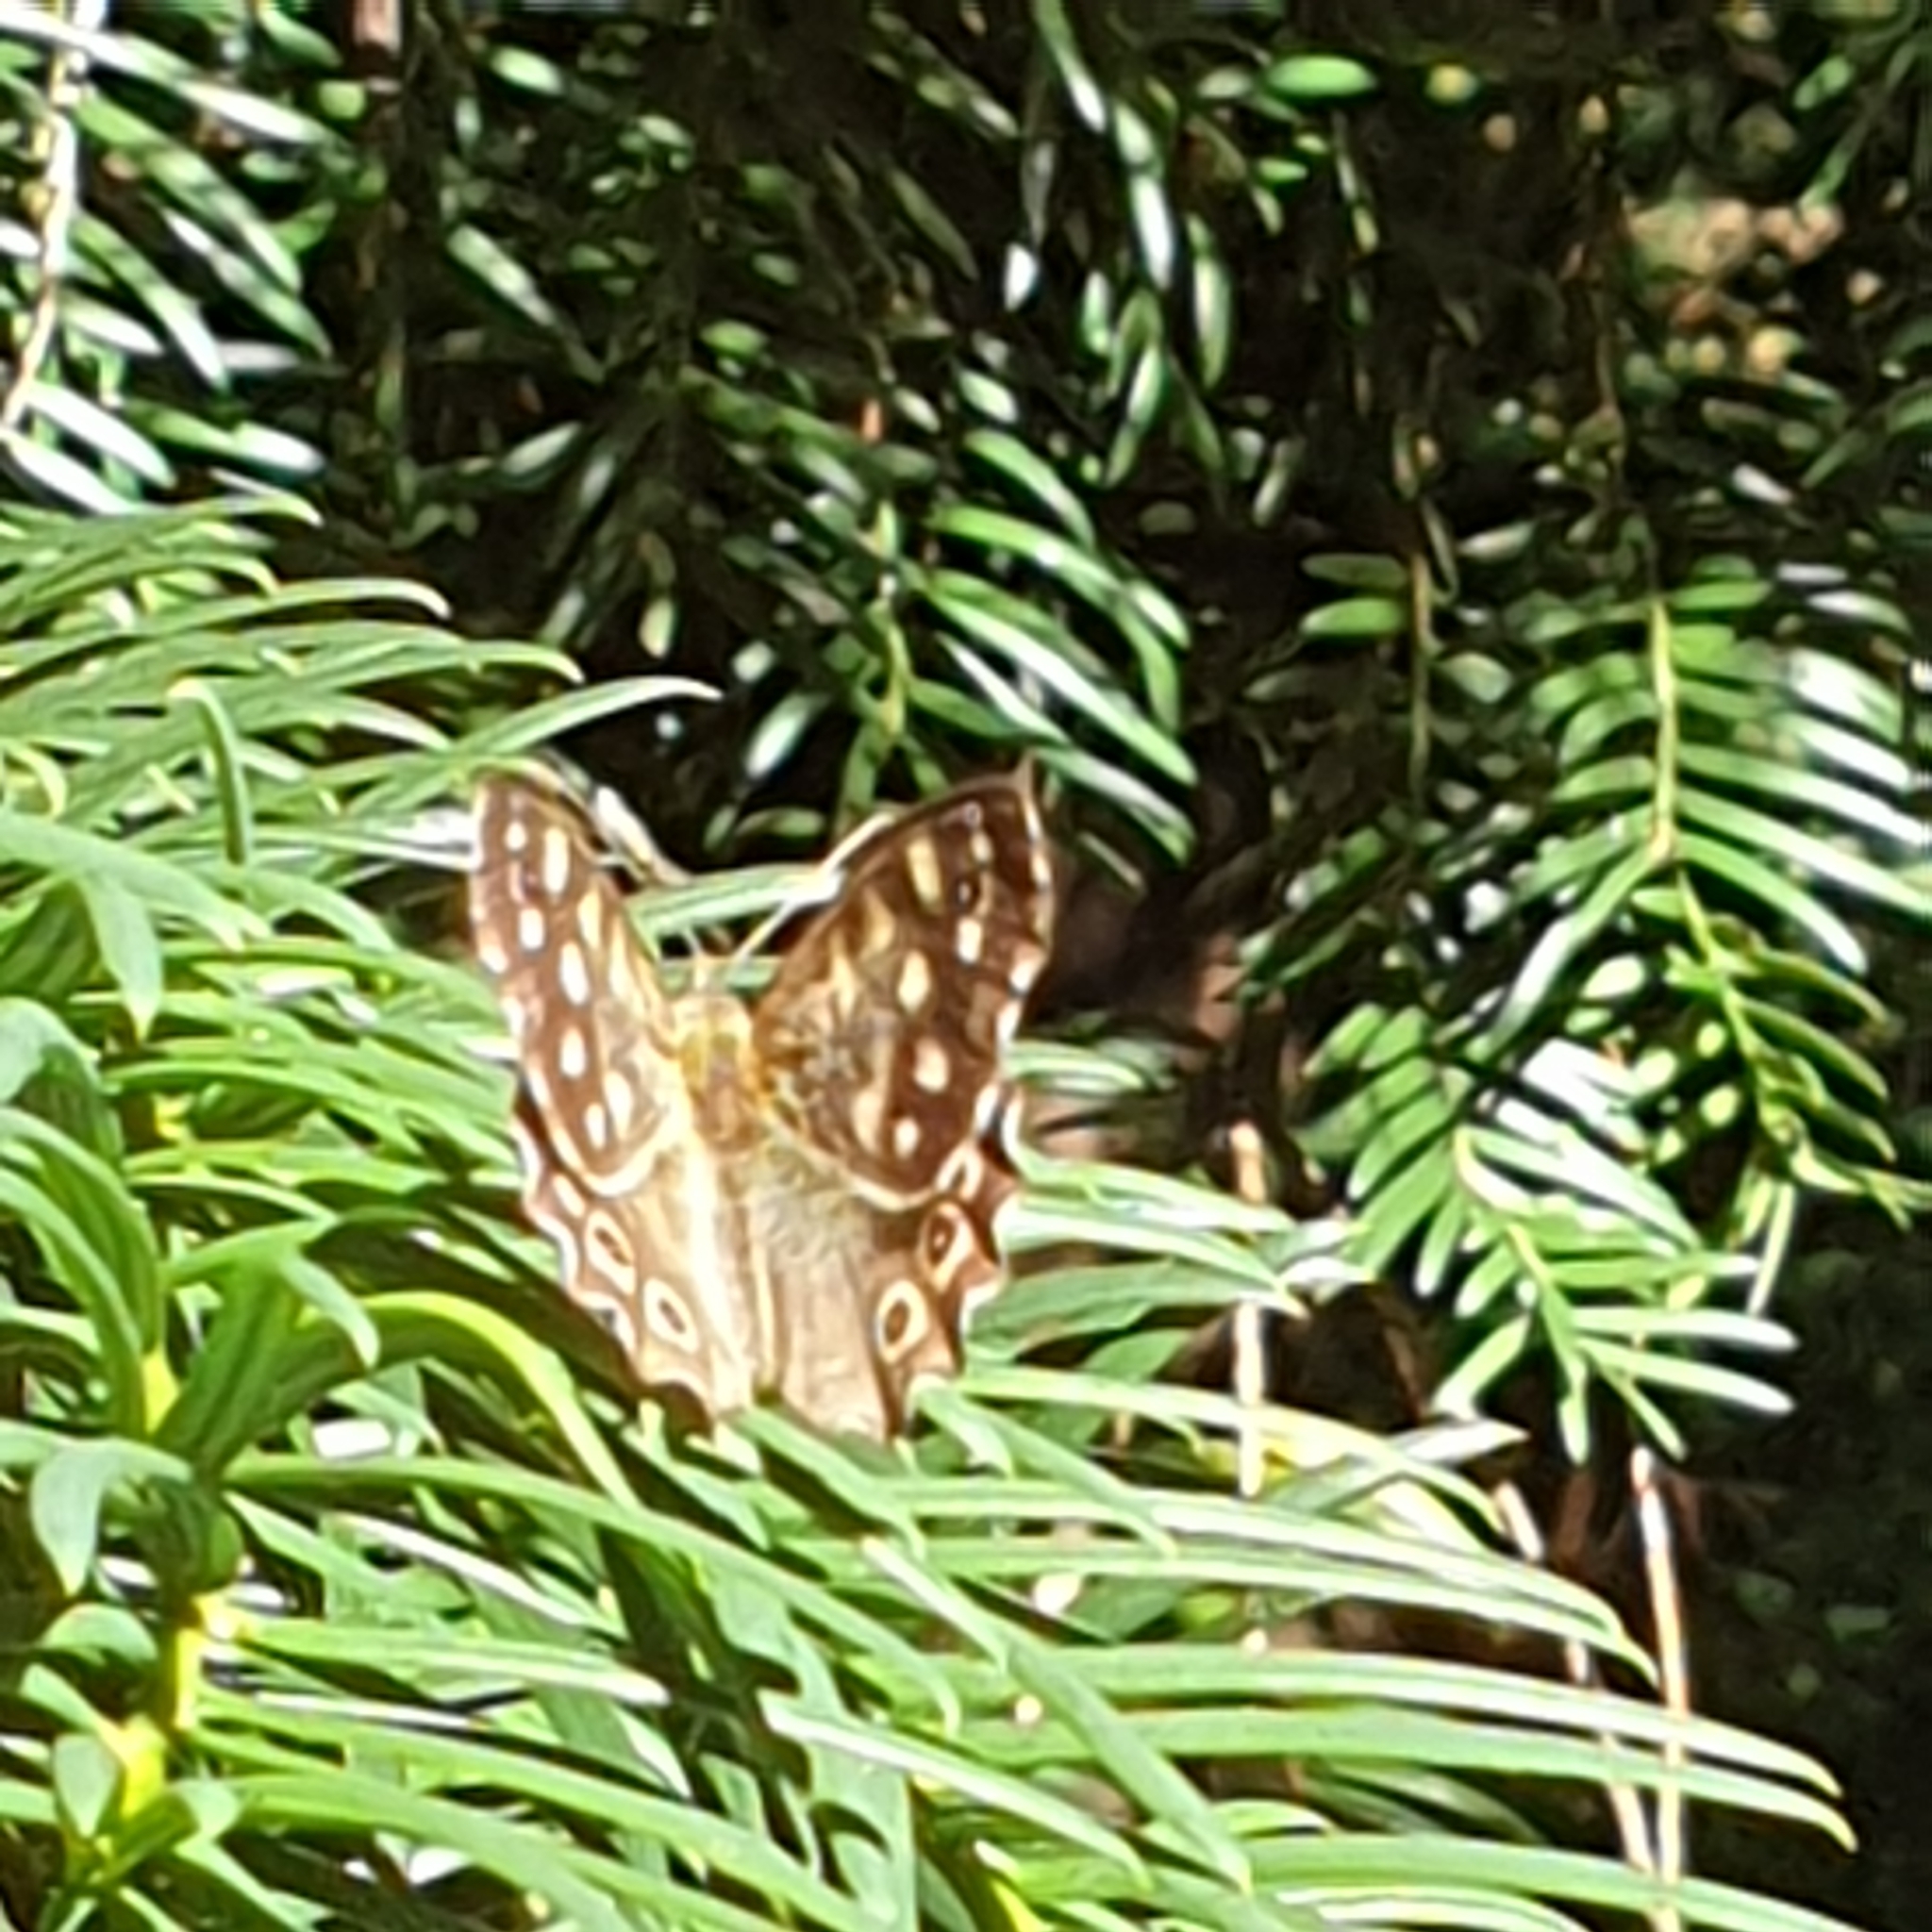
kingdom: Animalia
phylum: Arthropoda
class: Insecta
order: Lepidoptera
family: Nymphalidae
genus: Pararge
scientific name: Pararge aegeria
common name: Speckled wood
